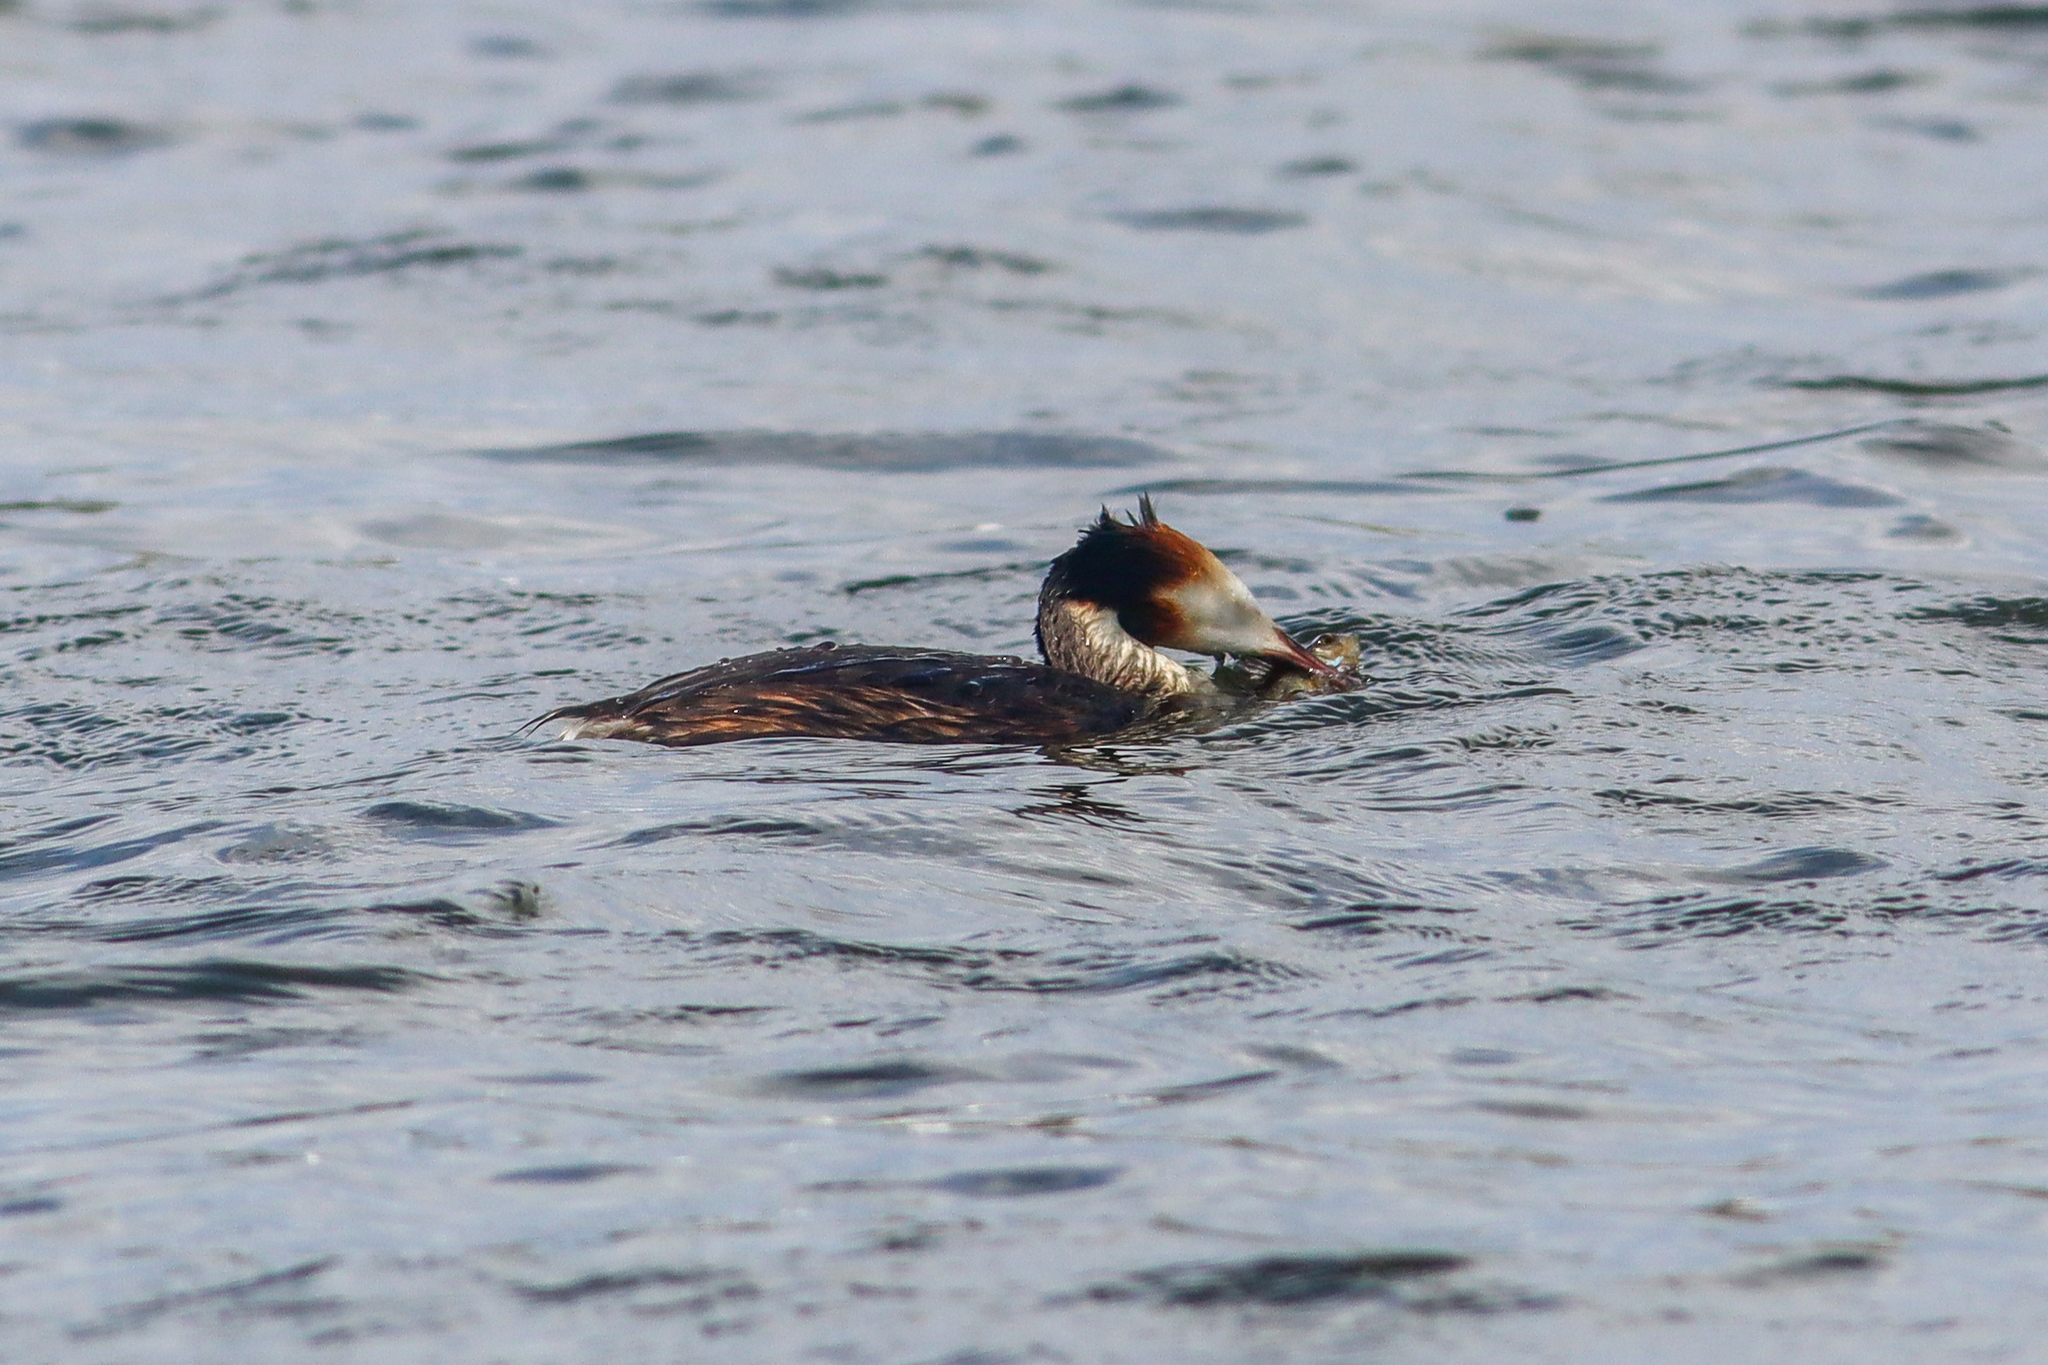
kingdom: Animalia
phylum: Chordata
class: Aves
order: Podicipediformes
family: Podicipedidae
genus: Podiceps
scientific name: Podiceps cristatus
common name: Great crested grebe
